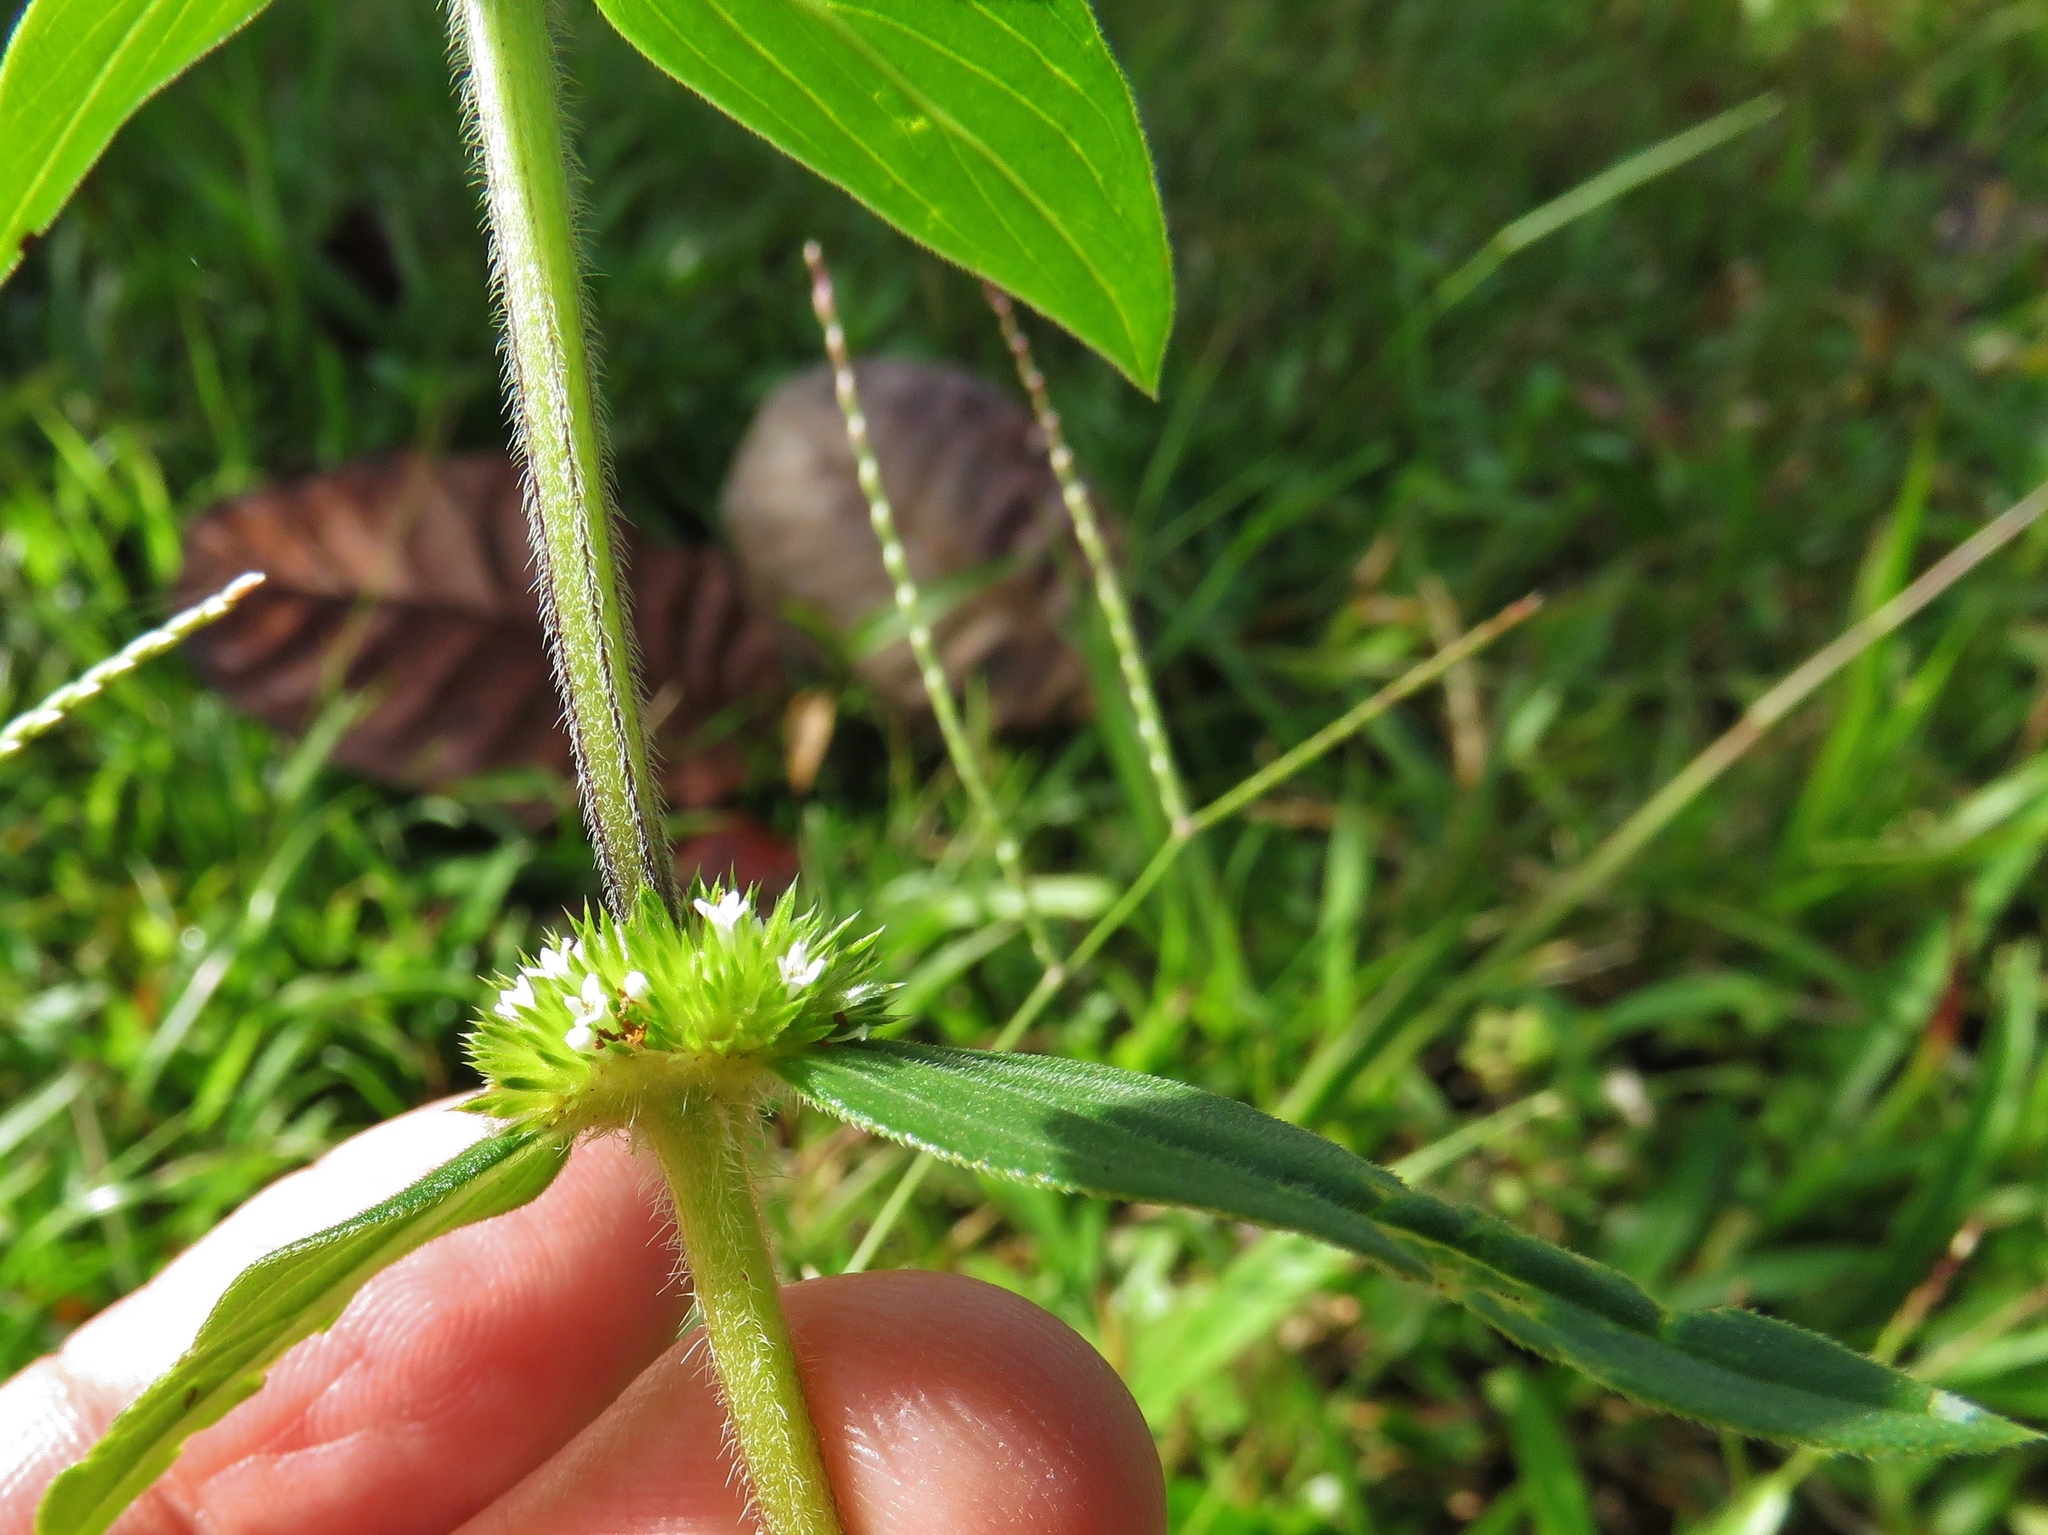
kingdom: Plantae
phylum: Tracheophyta
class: Magnoliopsida
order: Gentianales
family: Rubiaceae
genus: Mitracarpus
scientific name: Mitracarpus hirtus
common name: Tropical girdlepod
